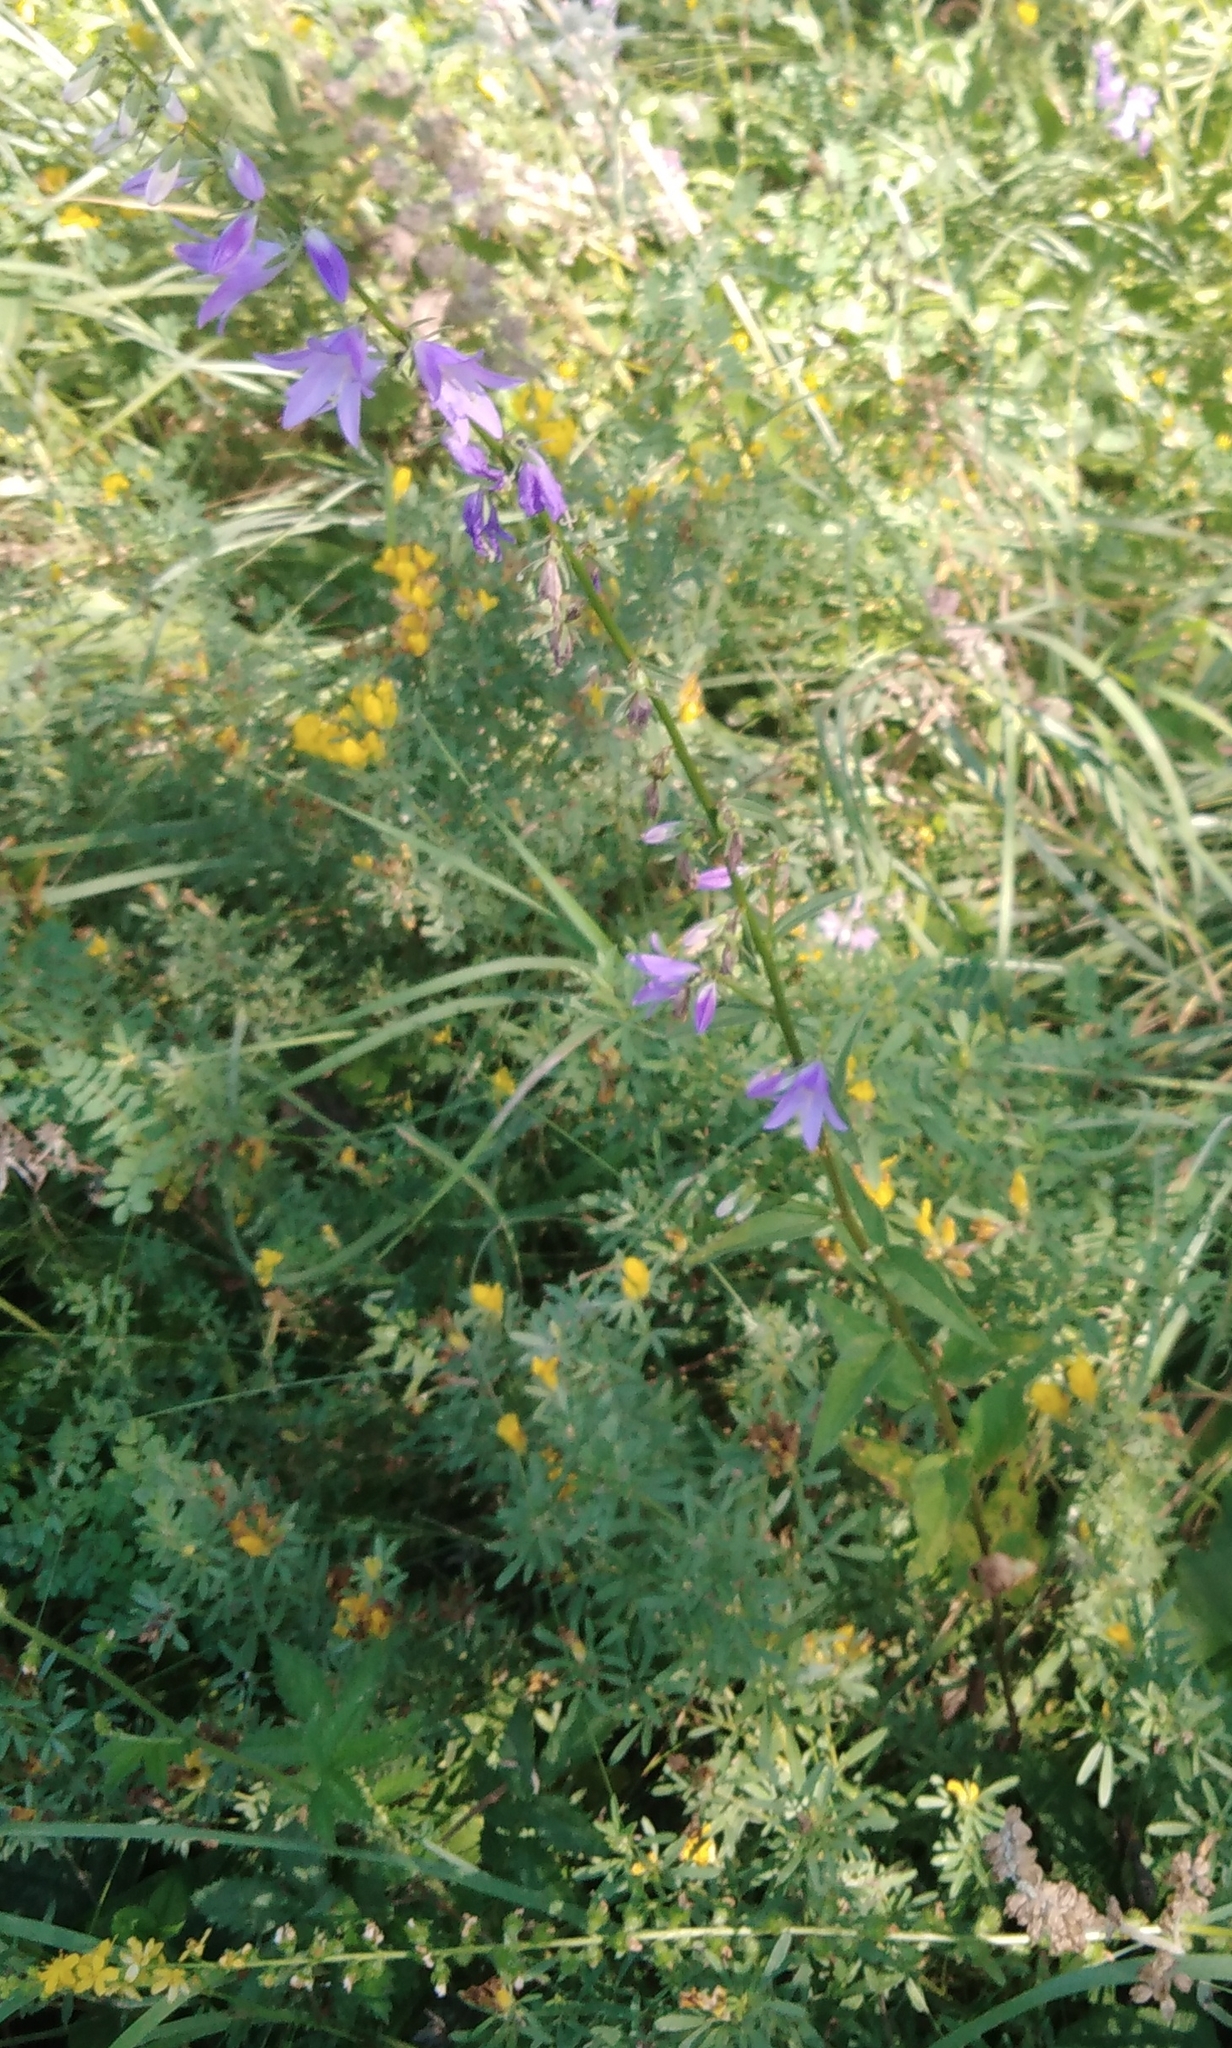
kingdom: Plantae
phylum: Tracheophyta
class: Magnoliopsida
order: Asterales
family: Campanulaceae
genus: Campanula
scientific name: Campanula rapunculoides
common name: Creeping bellflower
